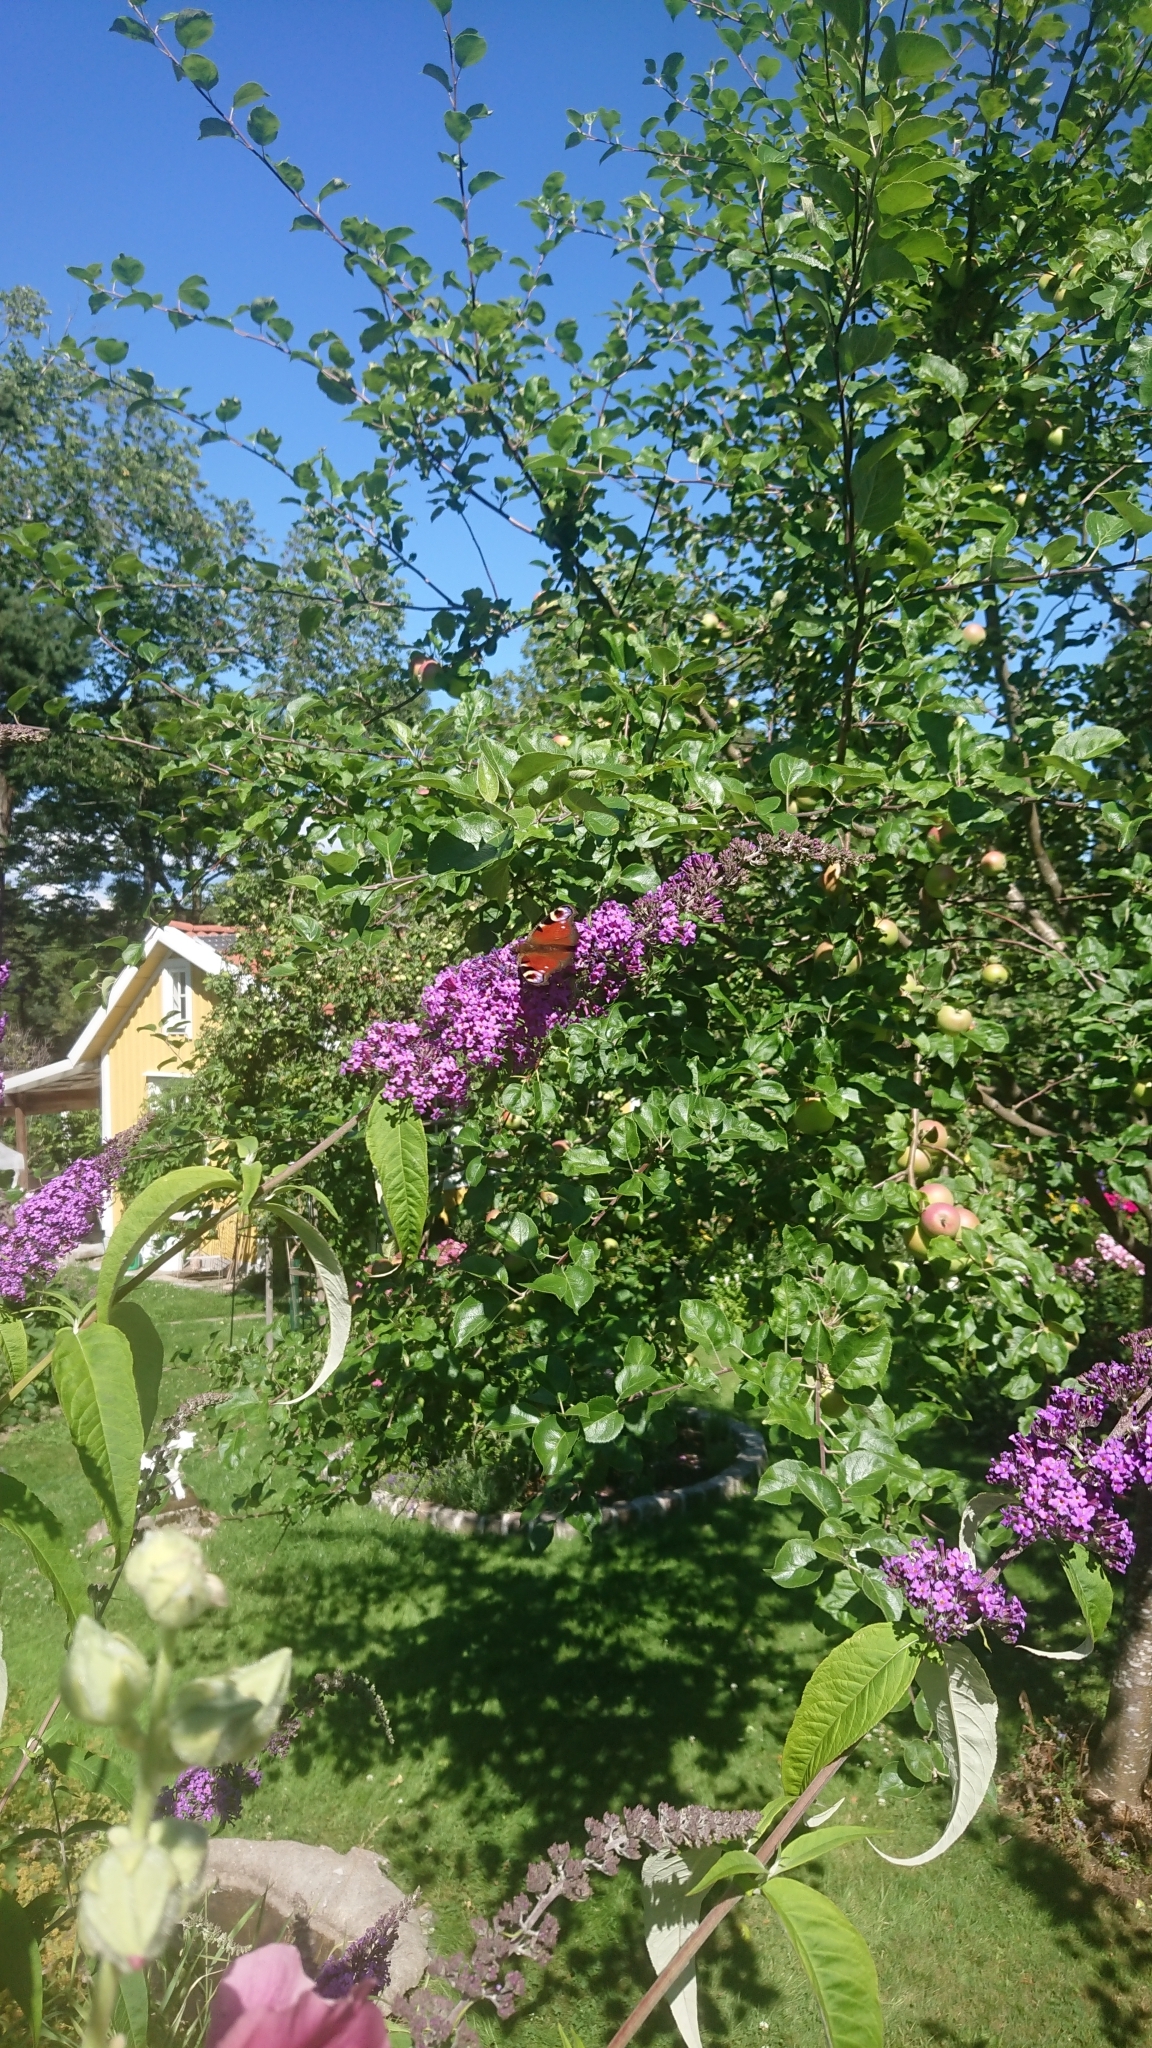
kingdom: Animalia
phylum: Arthropoda
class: Insecta
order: Lepidoptera
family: Nymphalidae
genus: Aglais
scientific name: Aglais io
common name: Peacock
